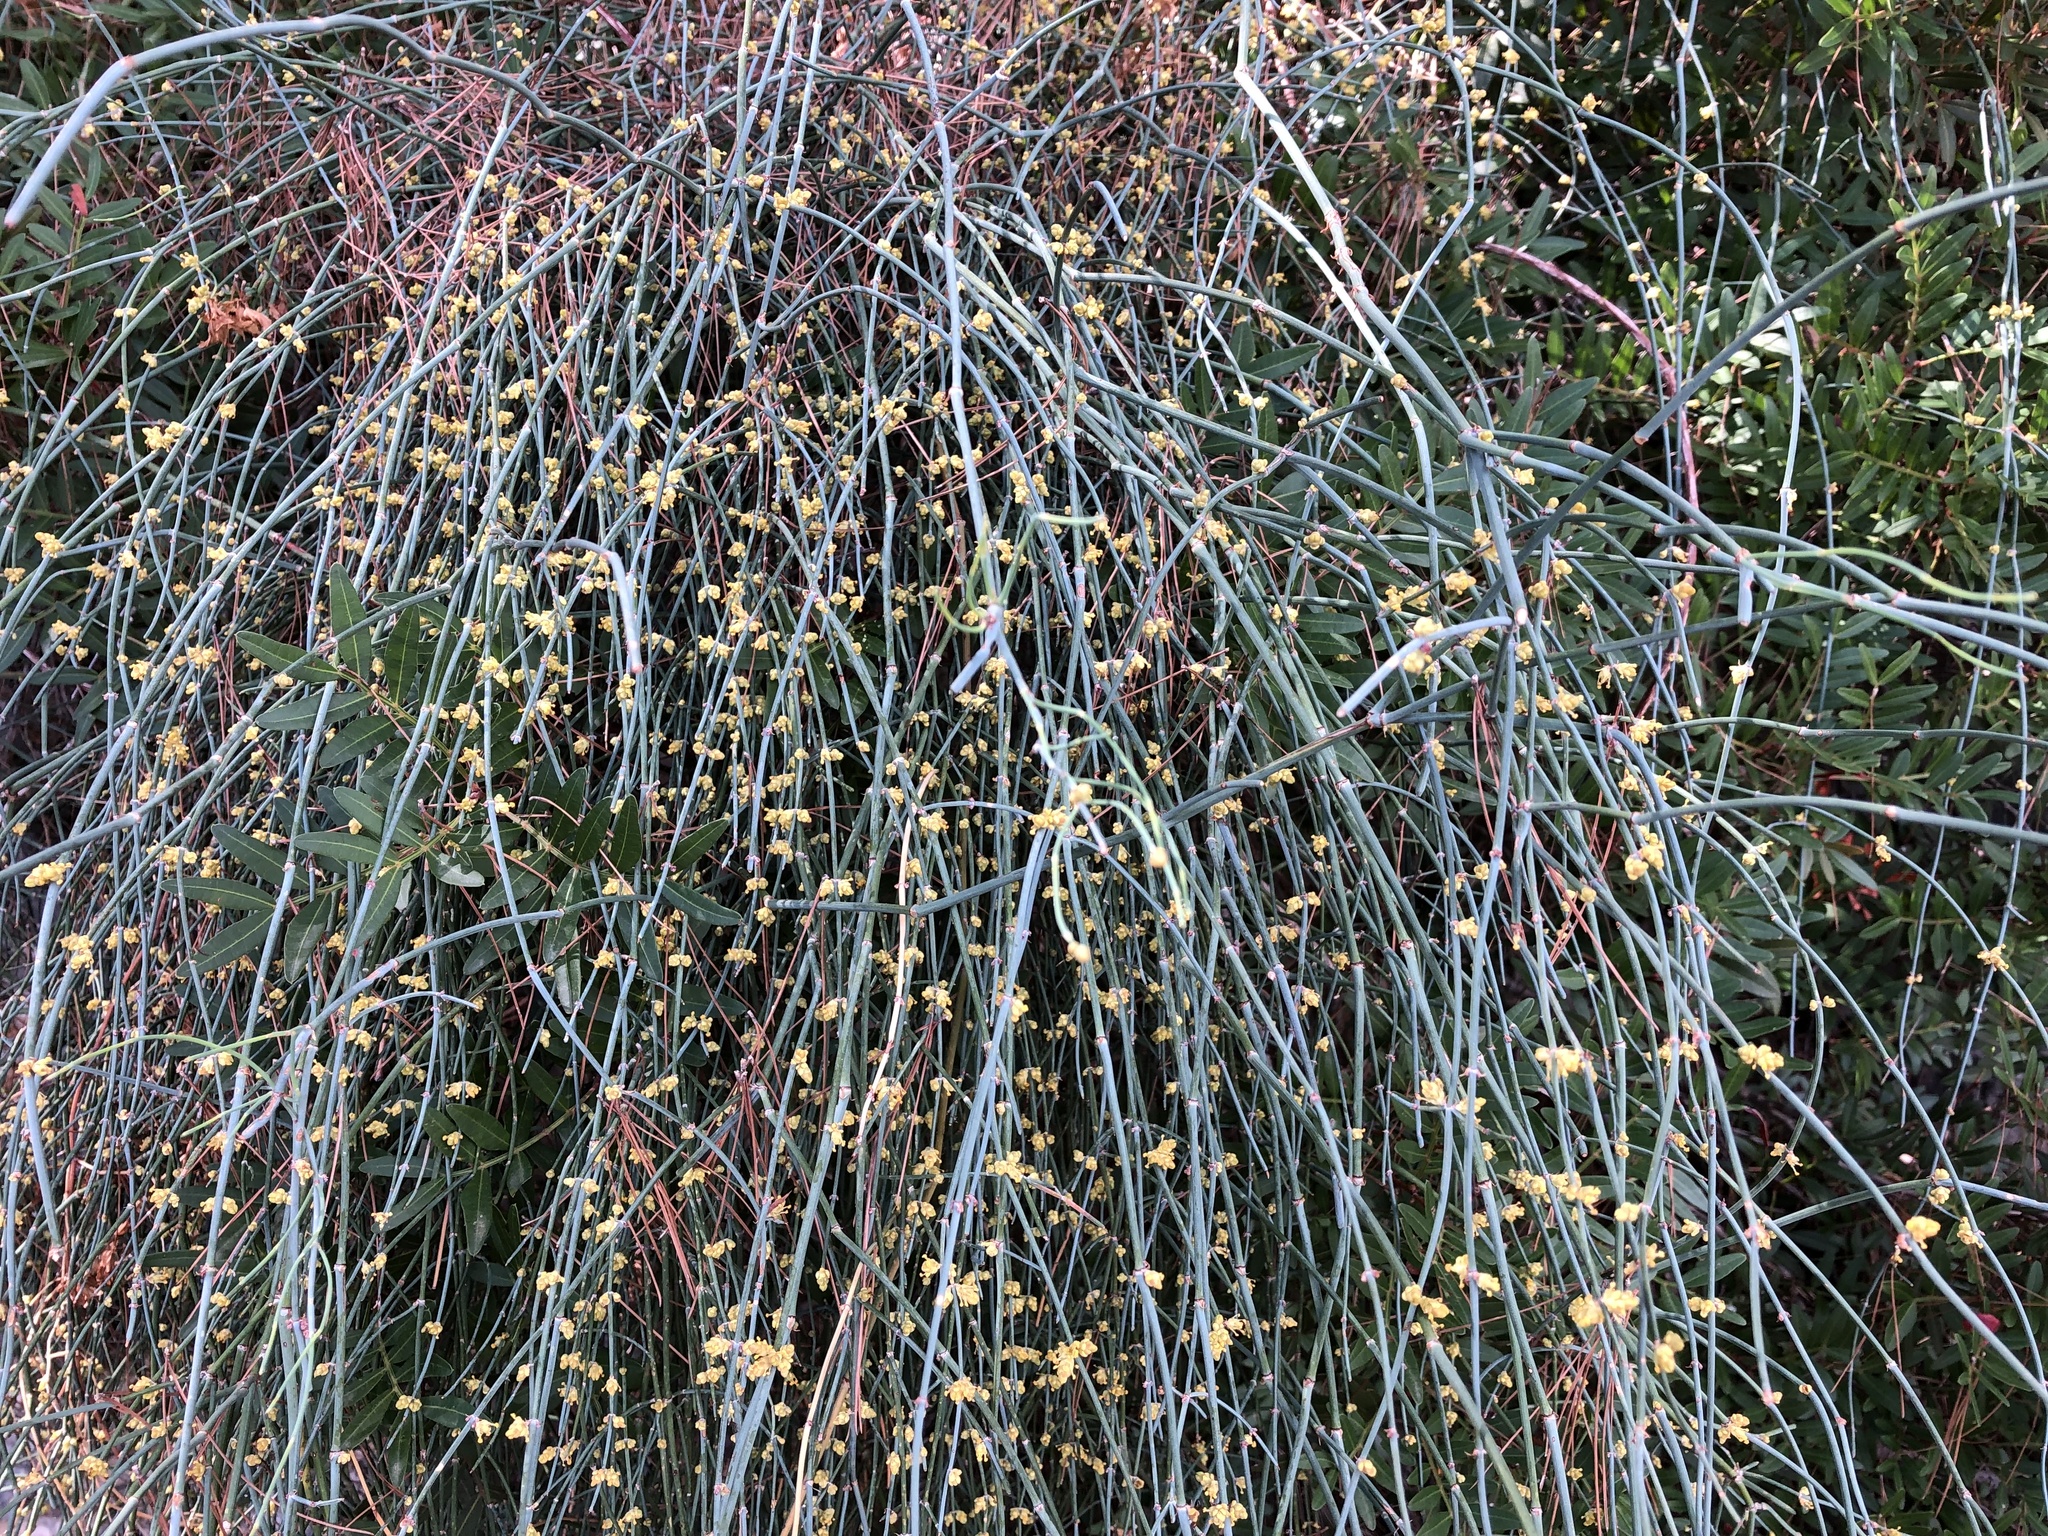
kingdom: Plantae
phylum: Tracheophyta
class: Gnetopsida
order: Ephedrales
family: Ephedraceae
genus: Ephedra
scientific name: Ephedra foeminea
